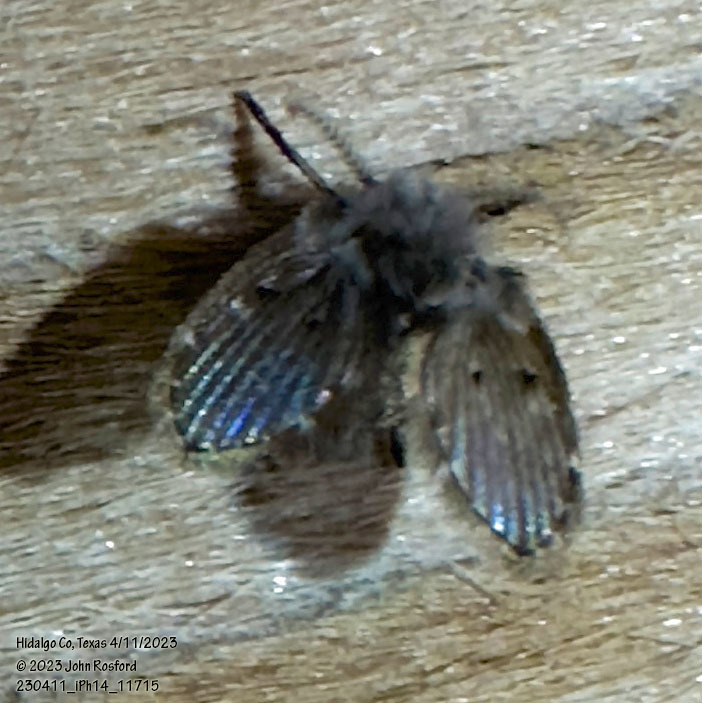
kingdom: Animalia
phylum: Arthropoda
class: Insecta
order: Diptera
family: Psychodidae
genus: Clogmia
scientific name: Clogmia albipunctatus
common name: White-spotted moth fly
